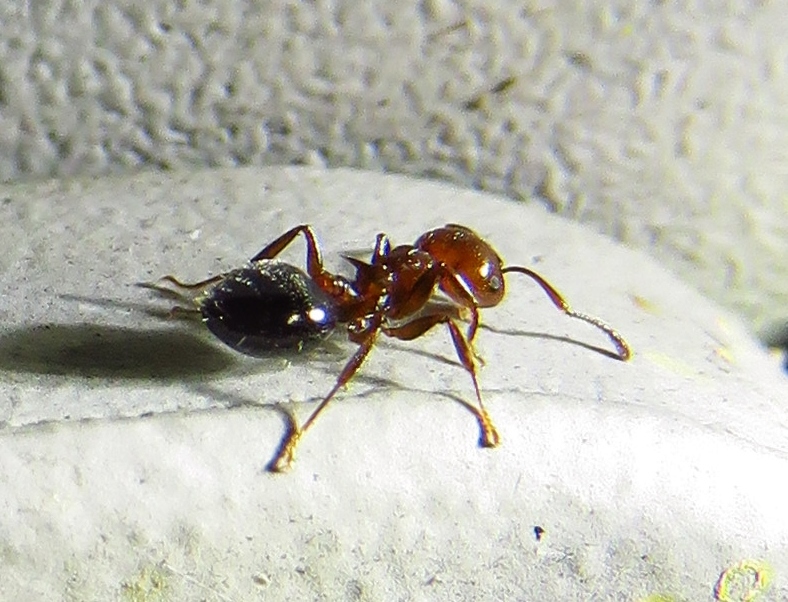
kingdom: Animalia
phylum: Arthropoda
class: Insecta
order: Hymenoptera
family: Formicidae
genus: Crematogaster
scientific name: Crematogaster laeviuscula
